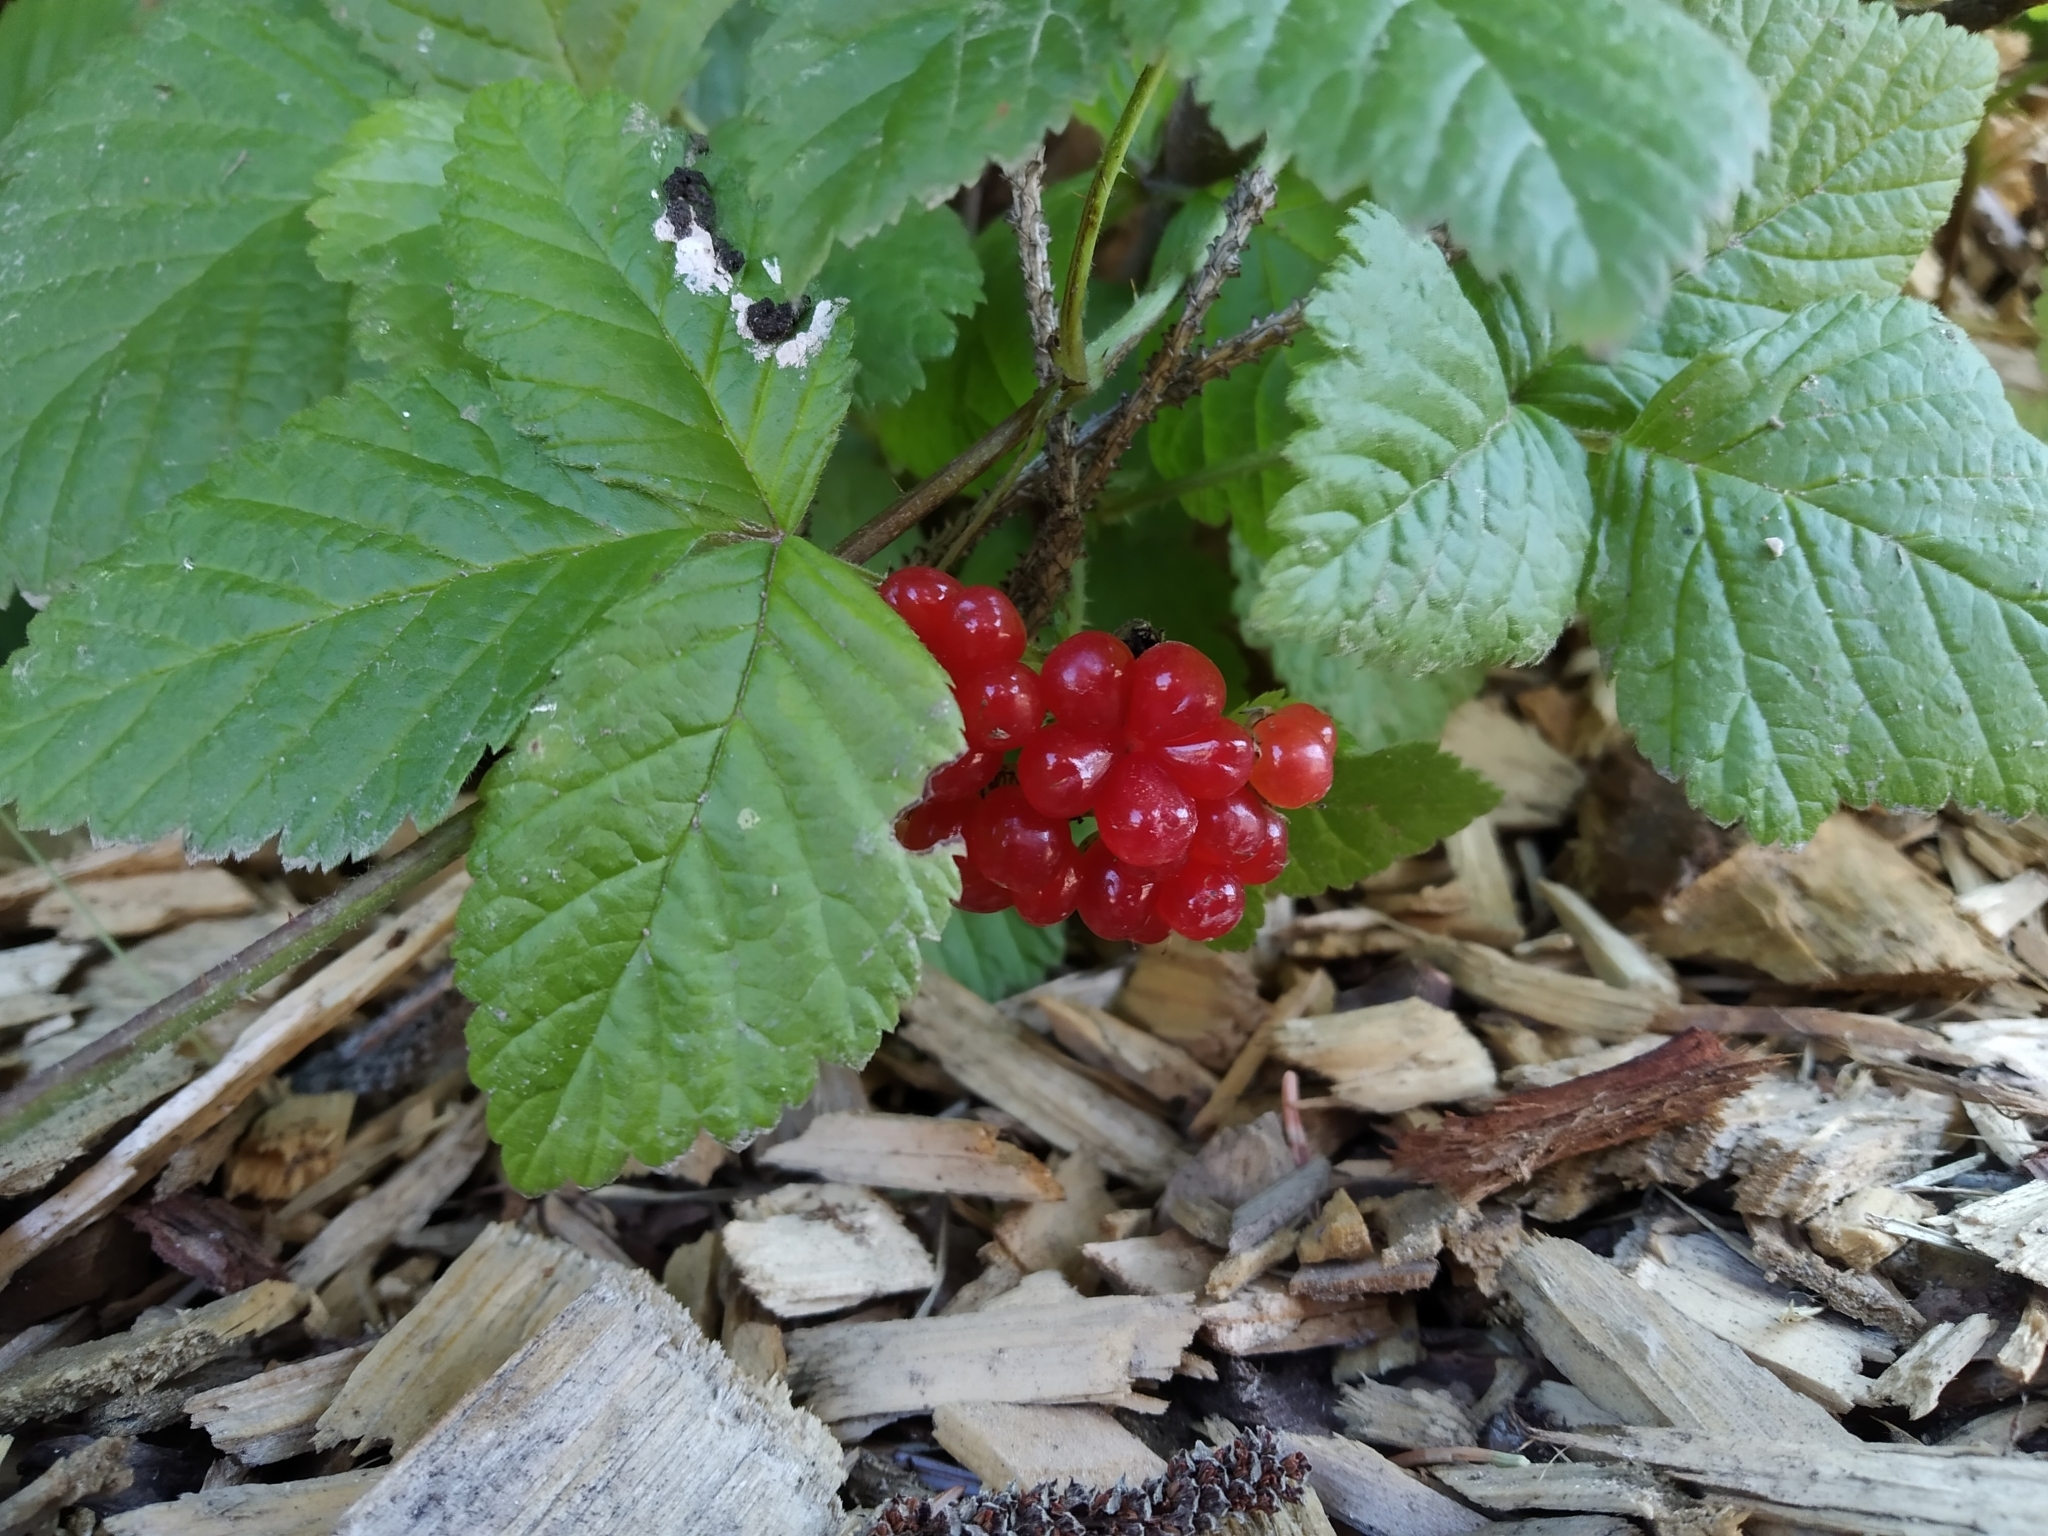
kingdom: Plantae
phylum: Tracheophyta
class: Magnoliopsida
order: Rosales
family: Rosaceae
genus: Rubus
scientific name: Rubus saxatilis
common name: Stone bramble
